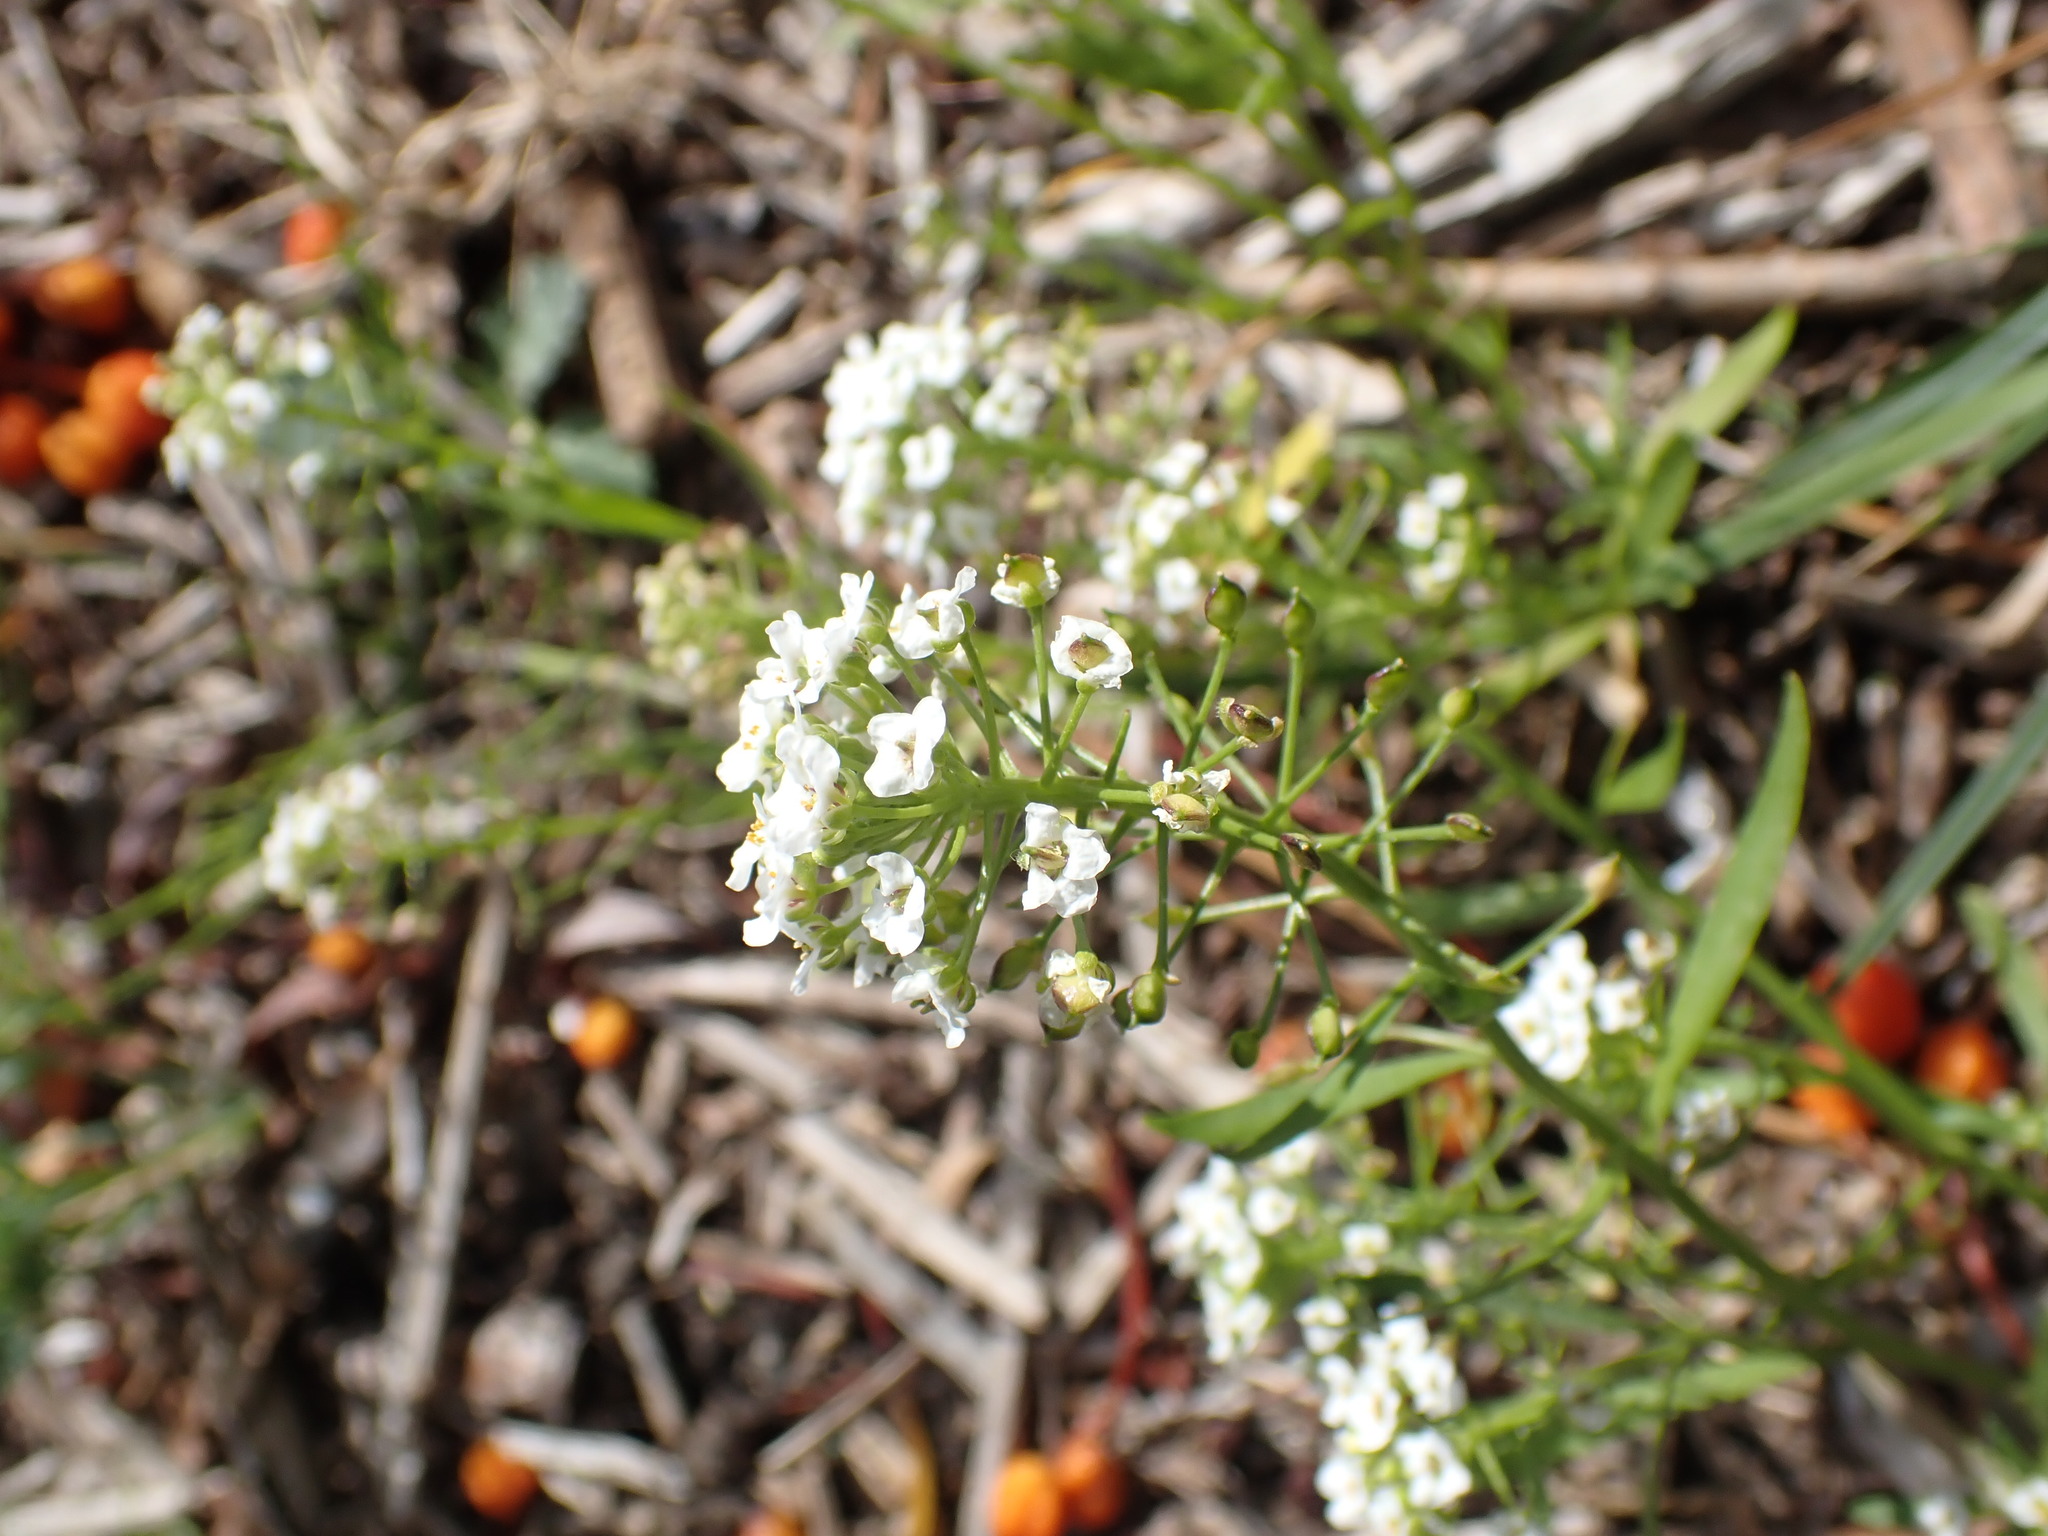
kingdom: Plantae
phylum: Tracheophyta
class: Magnoliopsida
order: Brassicales
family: Brassicaceae
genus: Lobularia
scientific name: Lobularia maritima
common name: Sweet alison
